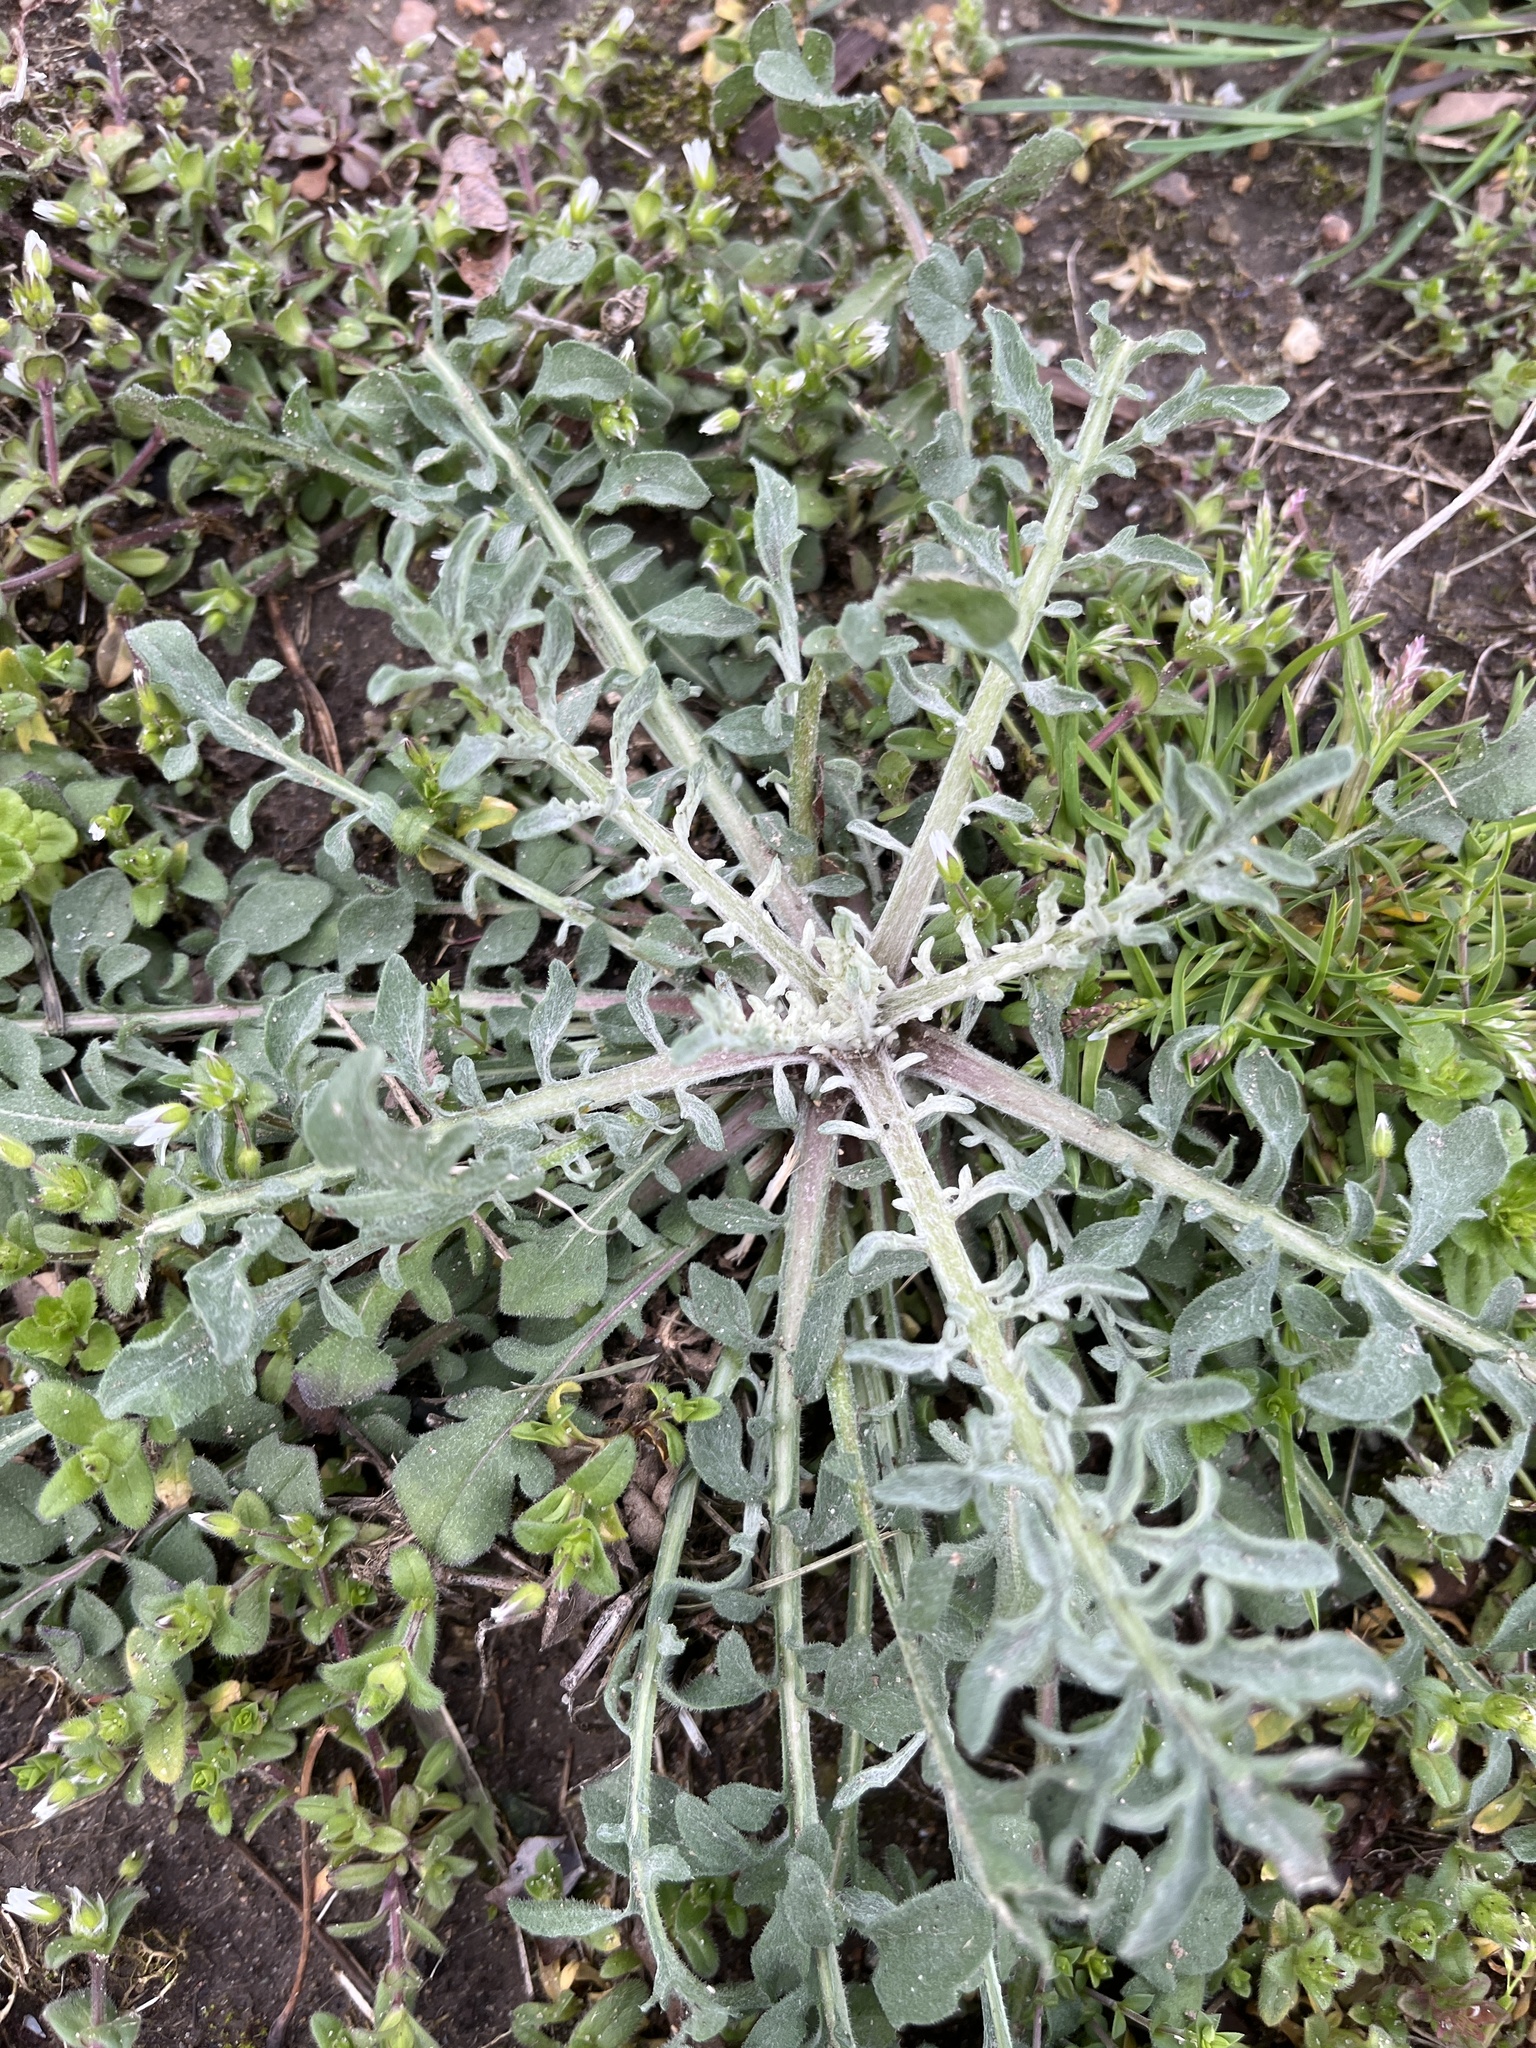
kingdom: Plantae
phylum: Tracheophyta
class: Magnoliopsida
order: Asterales
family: Asteraceae
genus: Centaurea
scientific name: Centaurea stoebe
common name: Spotted knapweed
